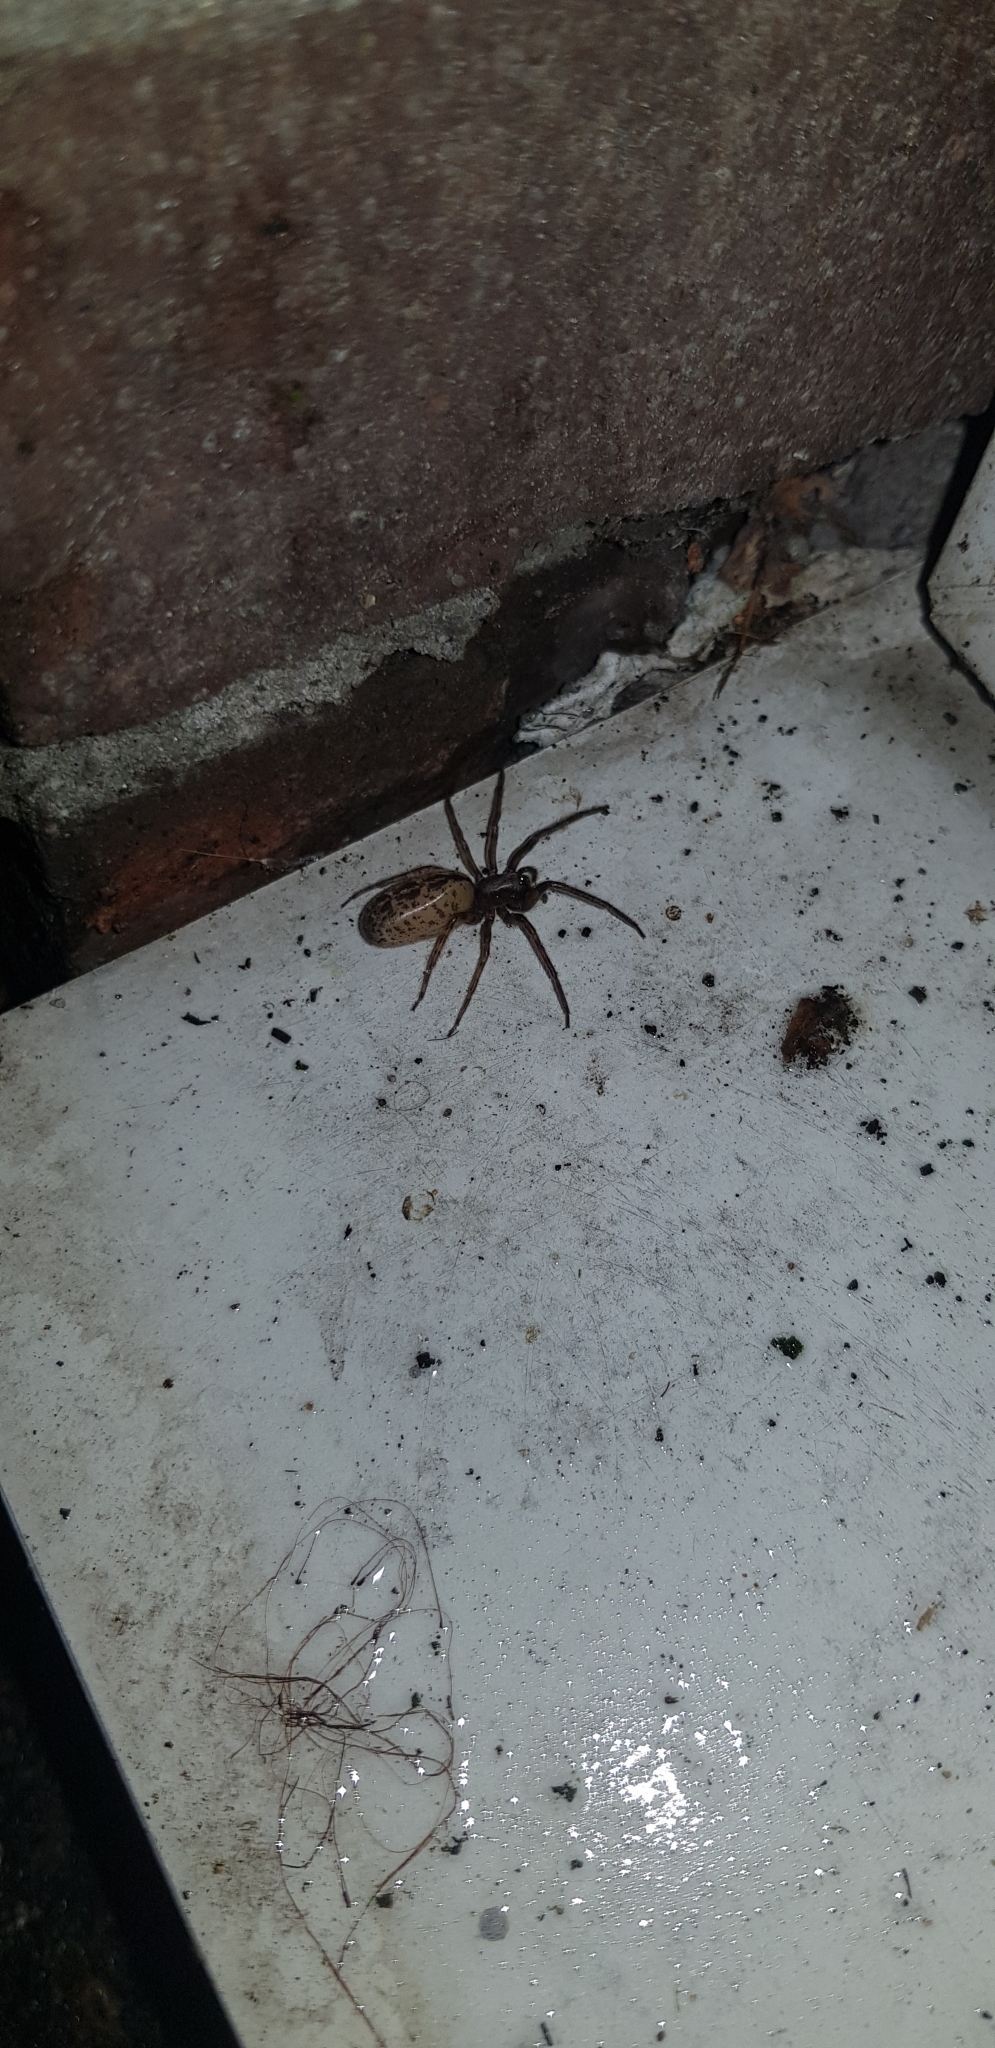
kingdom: Animalia
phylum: Arthropoda
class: Arachnida
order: Araneae
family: Segestriidae
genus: Segestria
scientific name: Segestria bavarica
